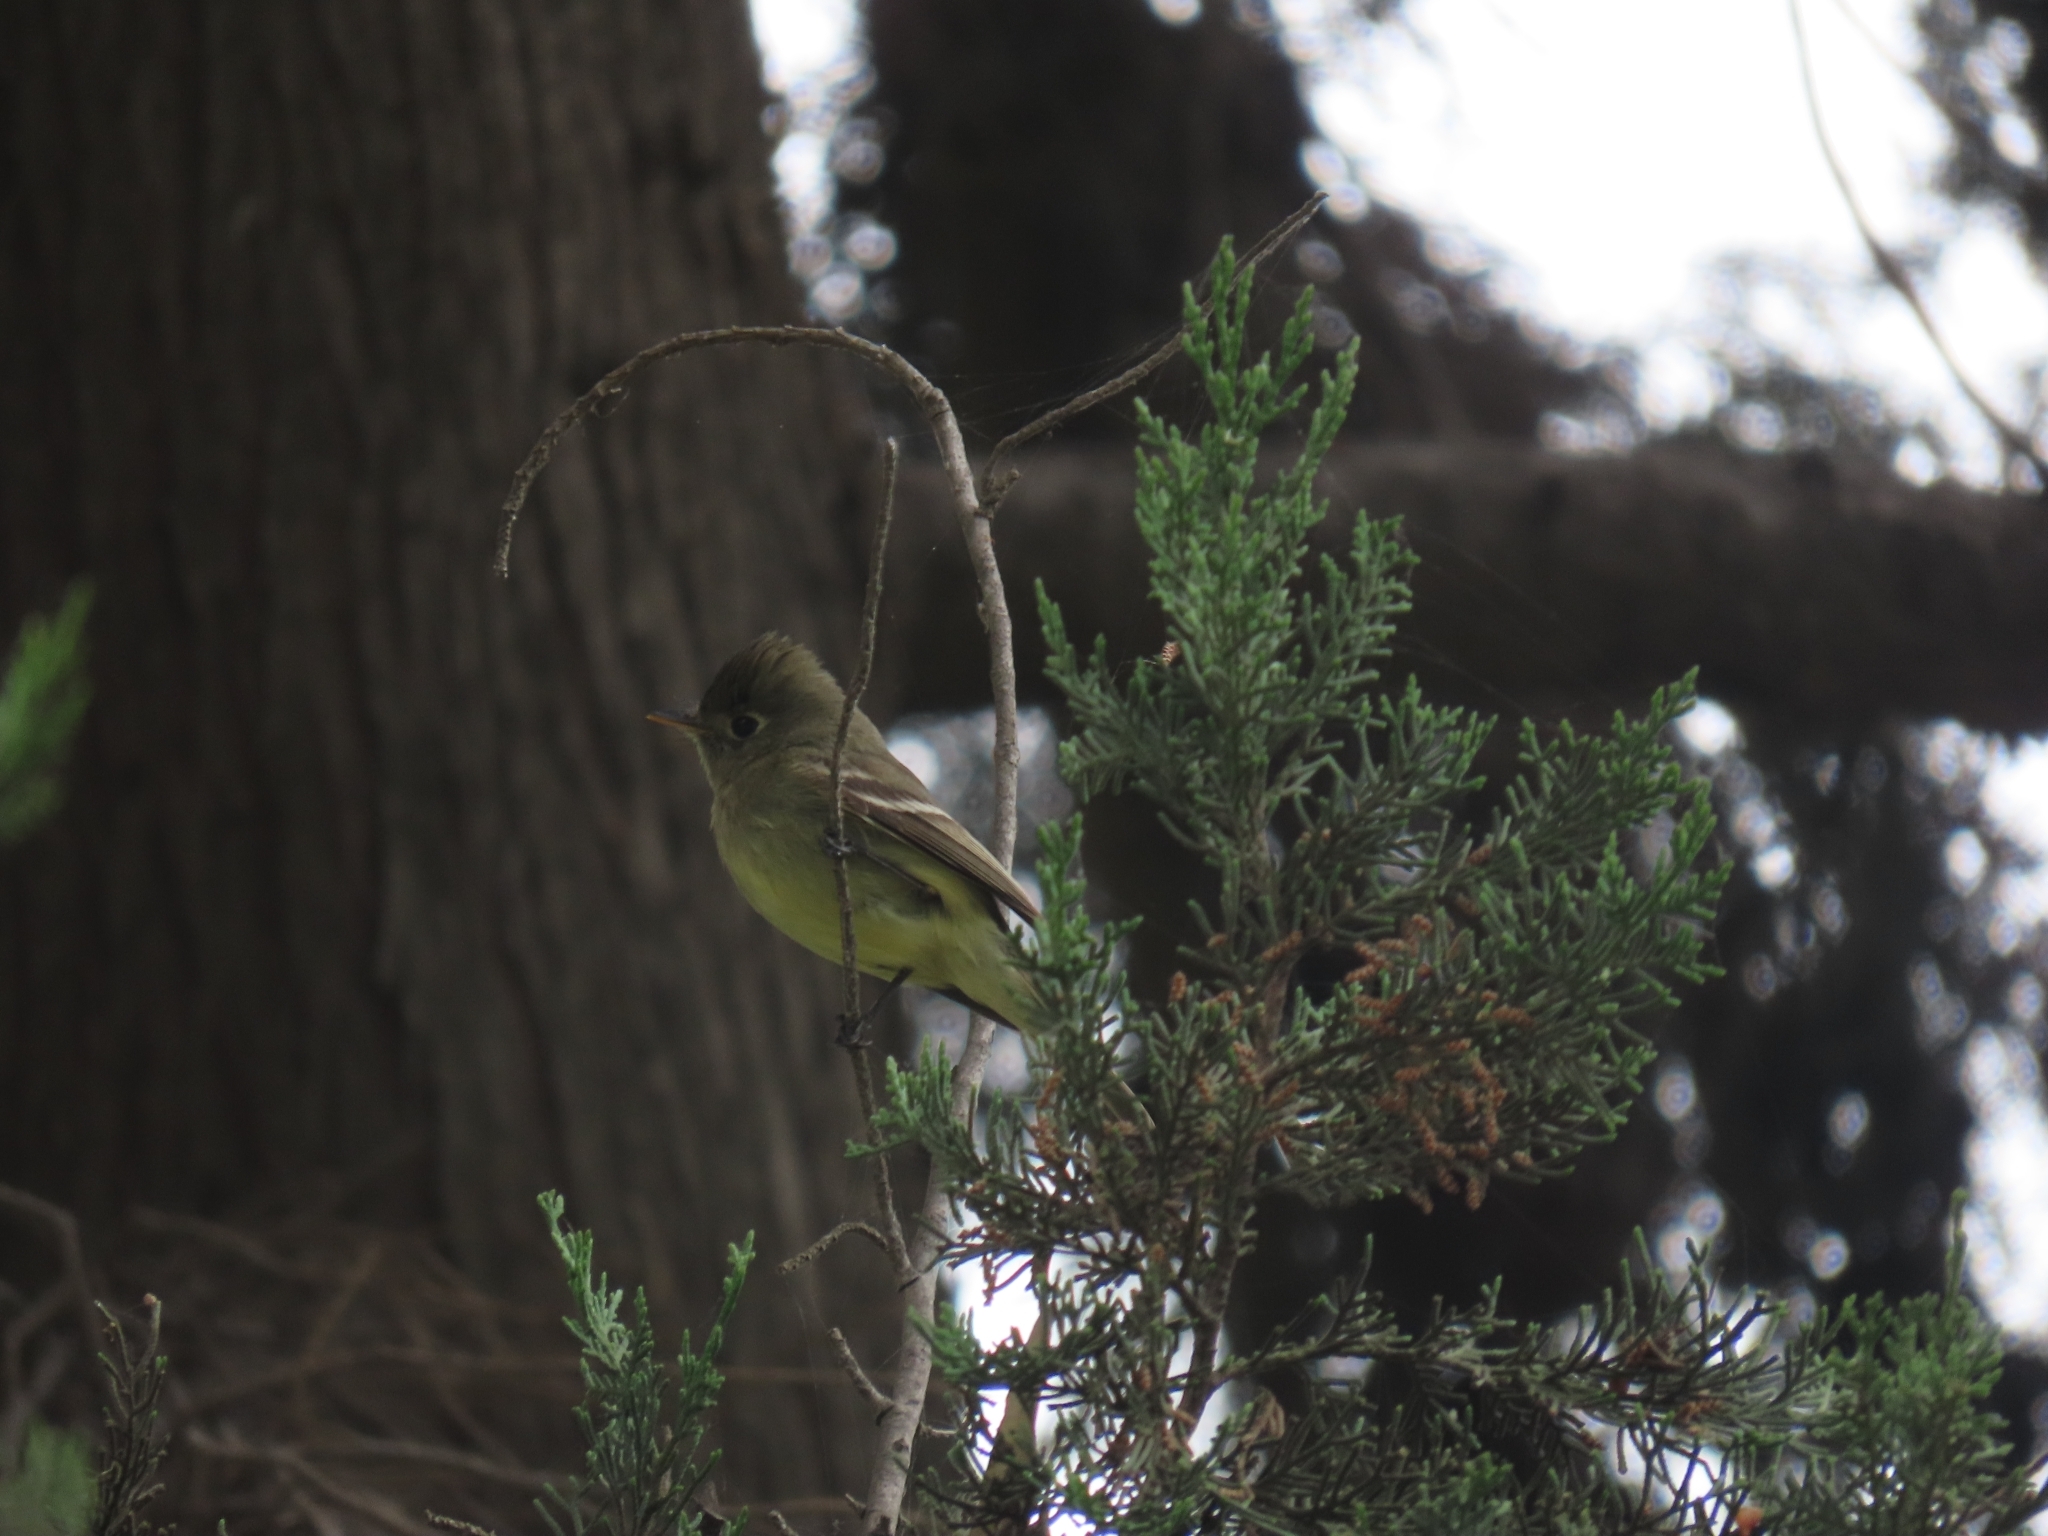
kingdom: Animalia
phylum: Chordata
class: Aves
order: Passeriformes
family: Tyrannidae
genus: Empidonax
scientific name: Empidonax difficilis
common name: Pacific-slope flycatcher
